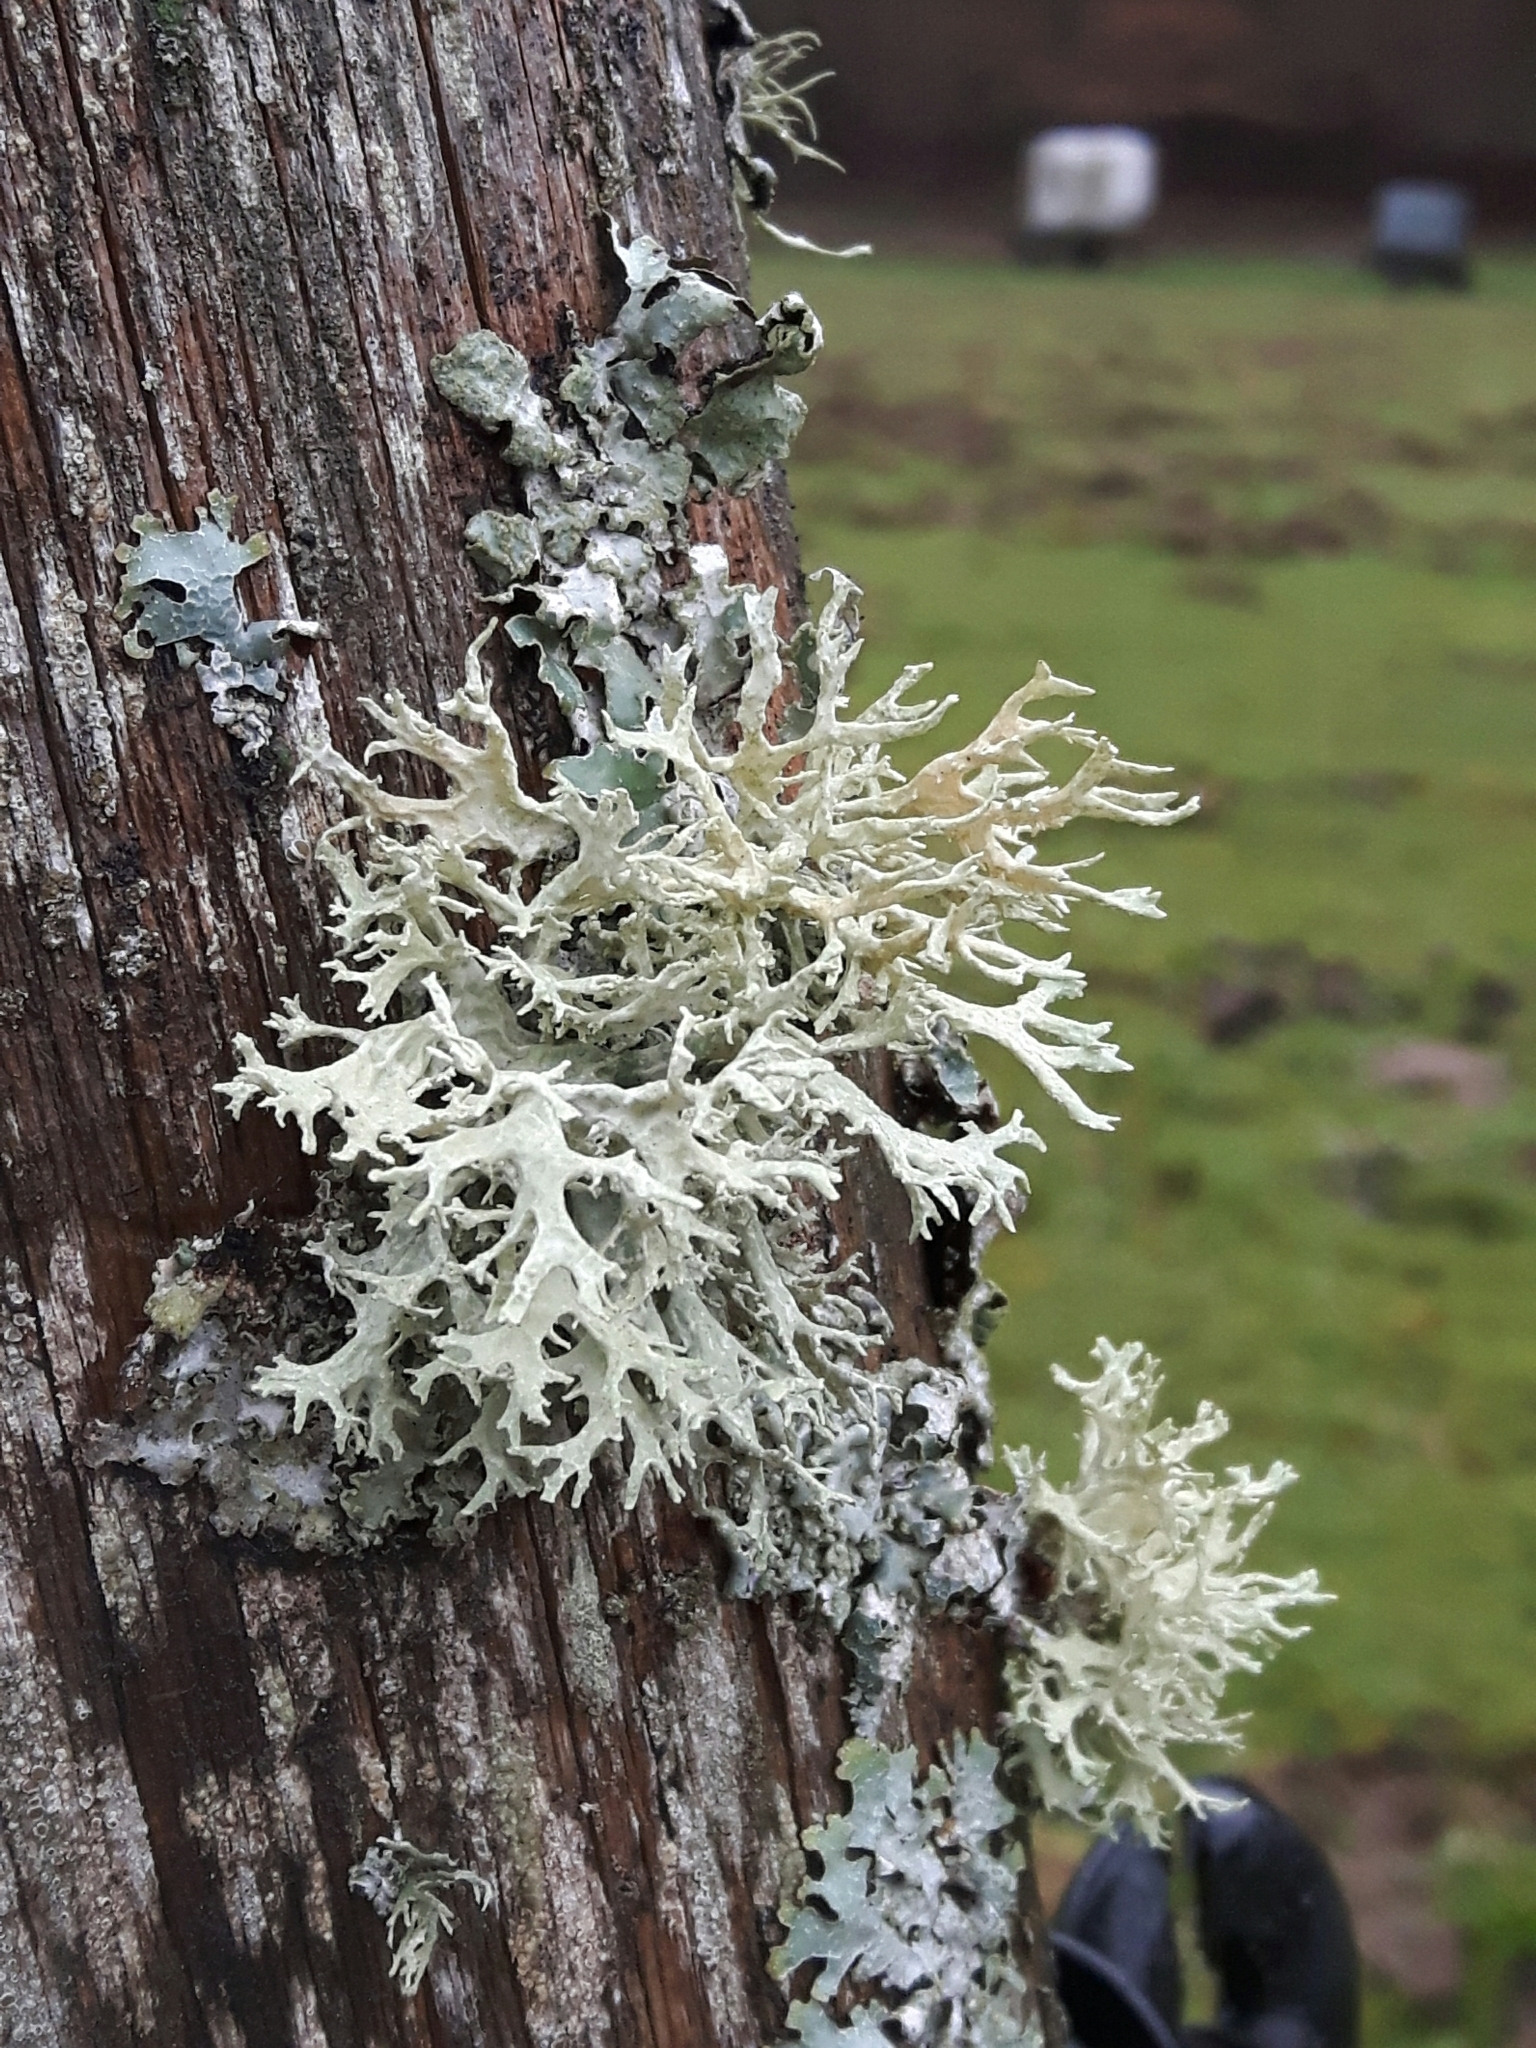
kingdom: Fungi
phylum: Ascomycota
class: Lecanoromycetes
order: Lecanorales
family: Parmeliaceae
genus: Evernia
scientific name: Evernia prunastri
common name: Oak moss
